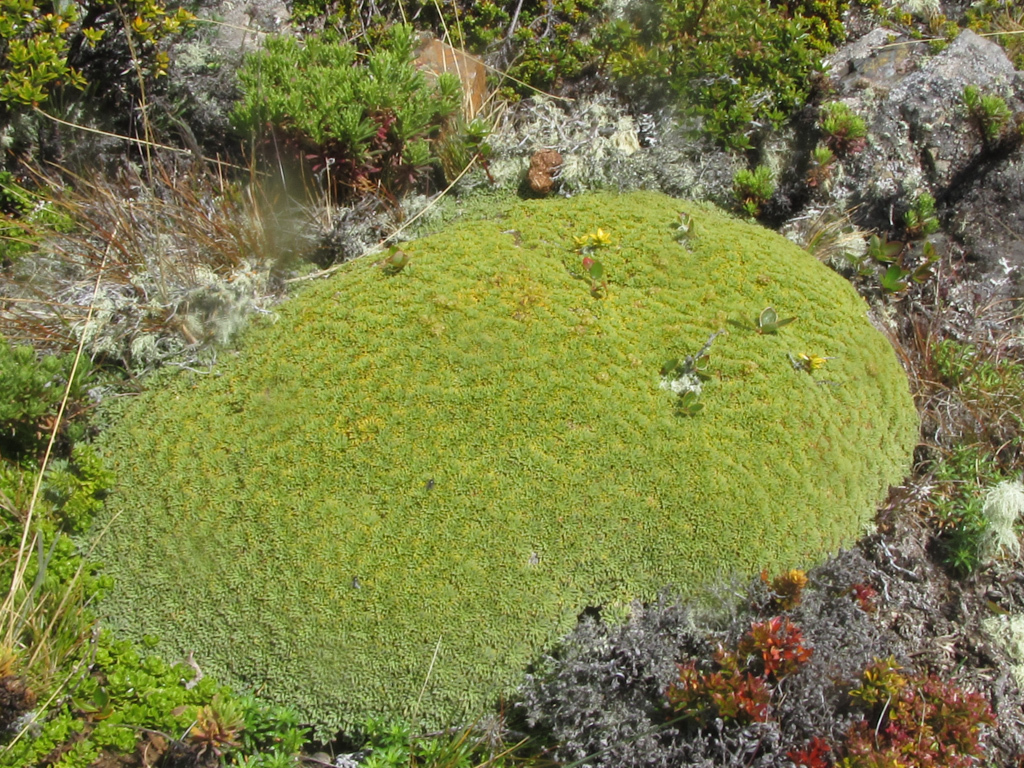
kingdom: Plantae
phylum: Tracheophyta
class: Magnoliopsida
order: Apiales
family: Apiaceae
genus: Bolax
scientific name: Bolax gummifera
